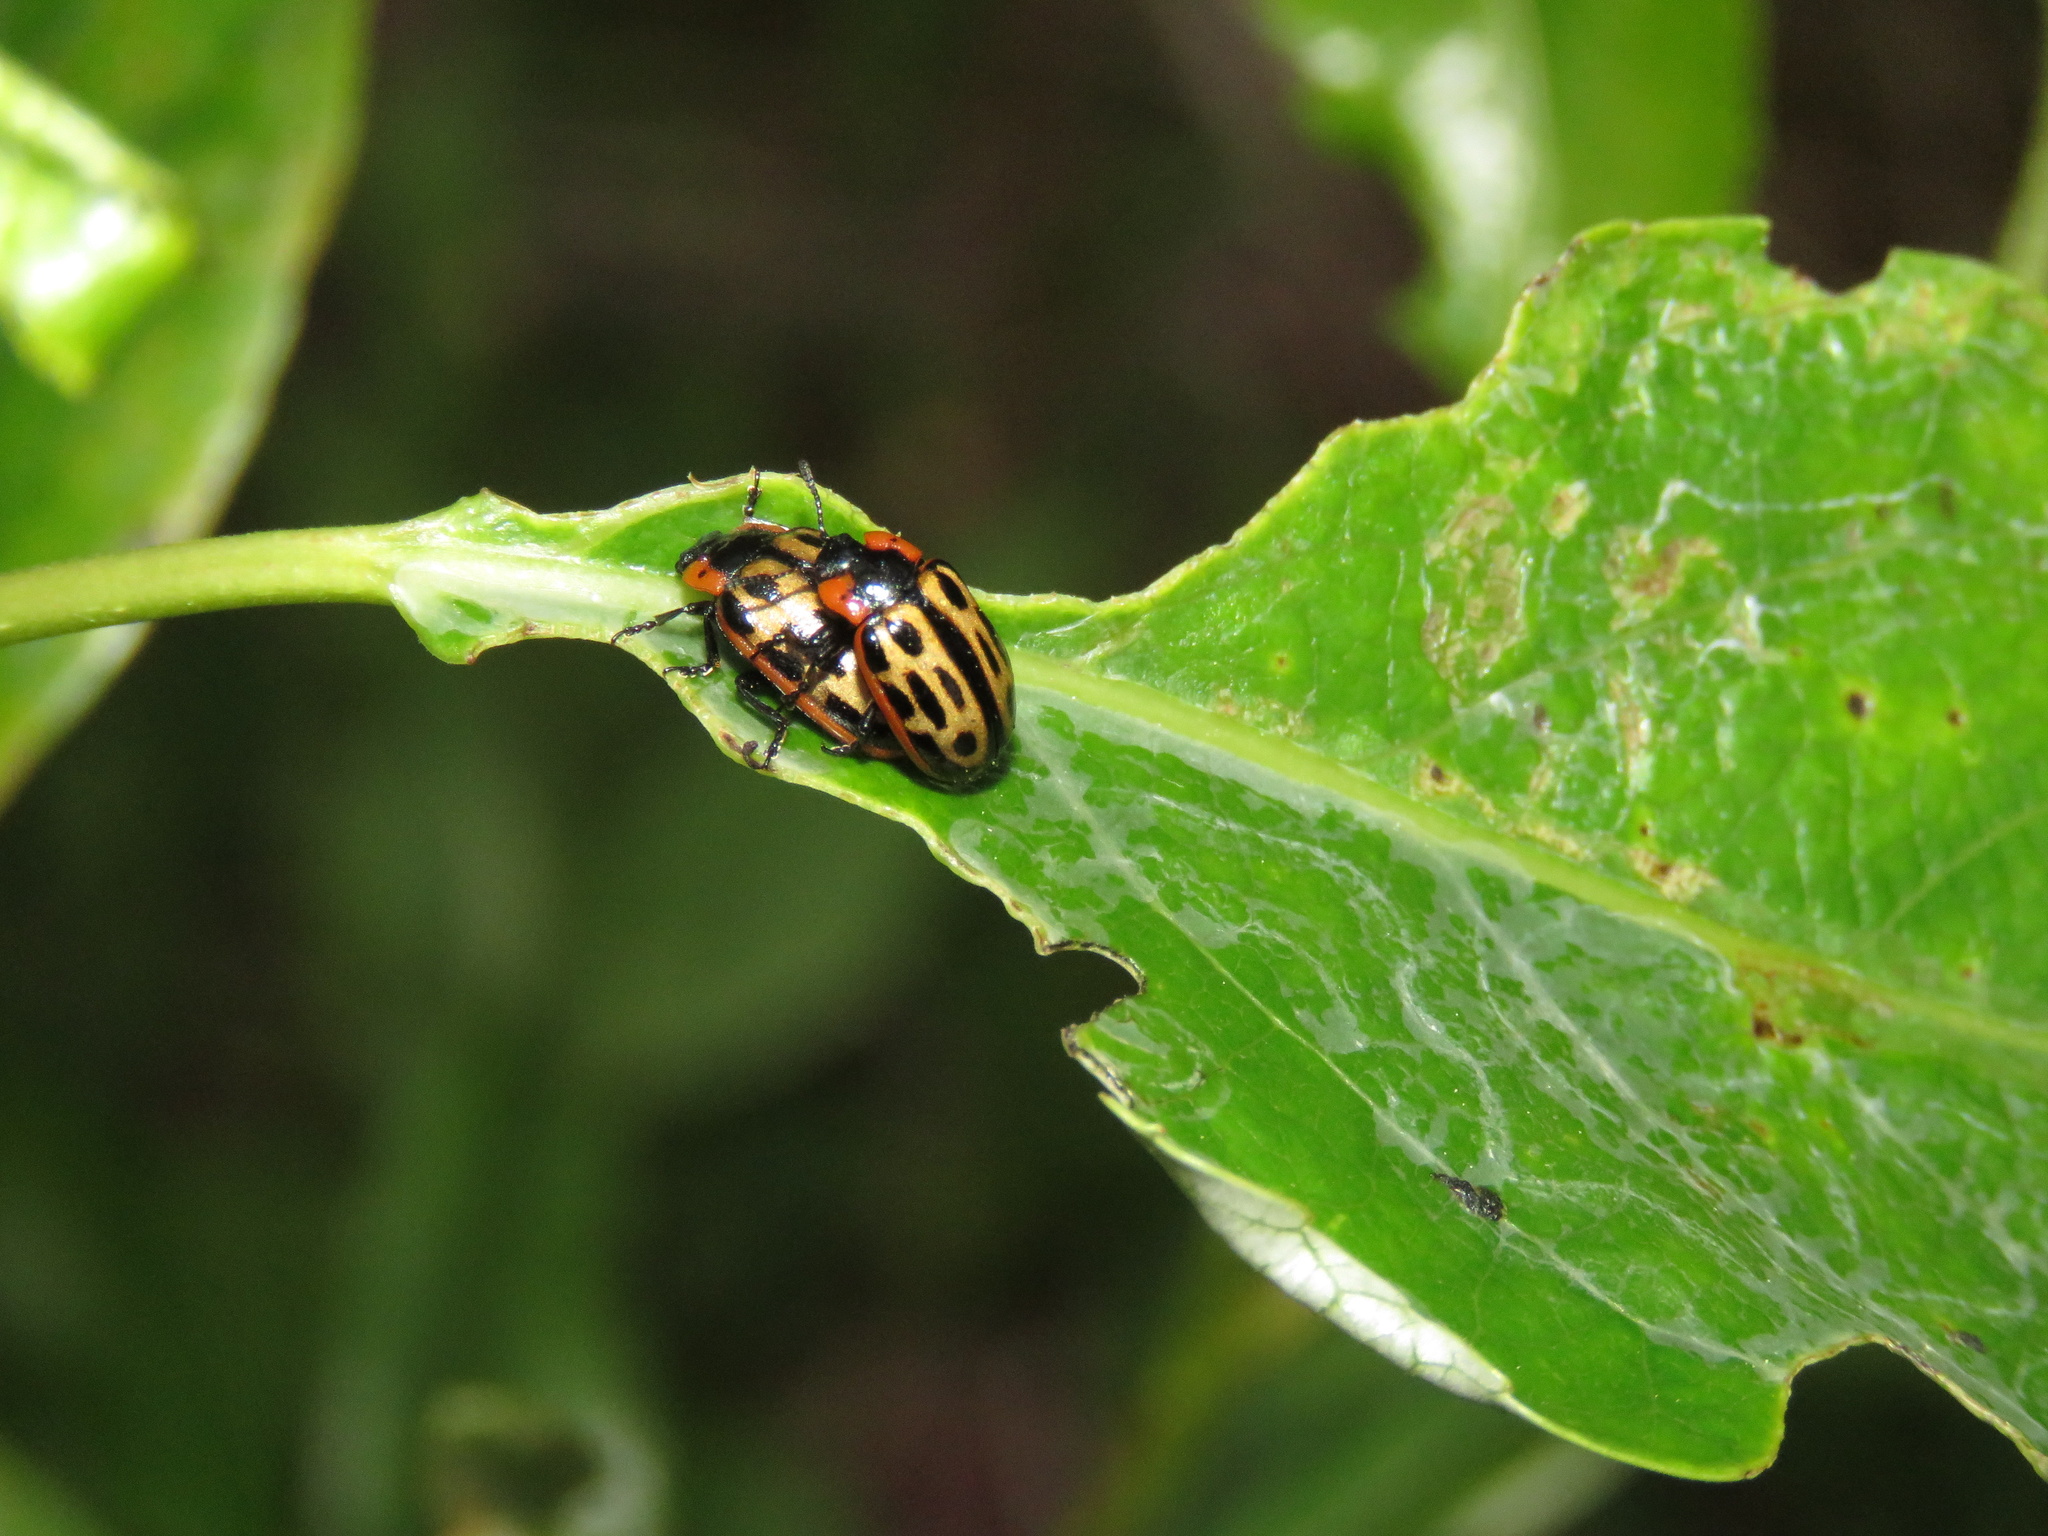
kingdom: Animalia
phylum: Arthropoda
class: Insecta
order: Coleoptera
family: Chrysomelidae
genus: Aethiopocassis
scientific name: Aethiopocassis scripta
